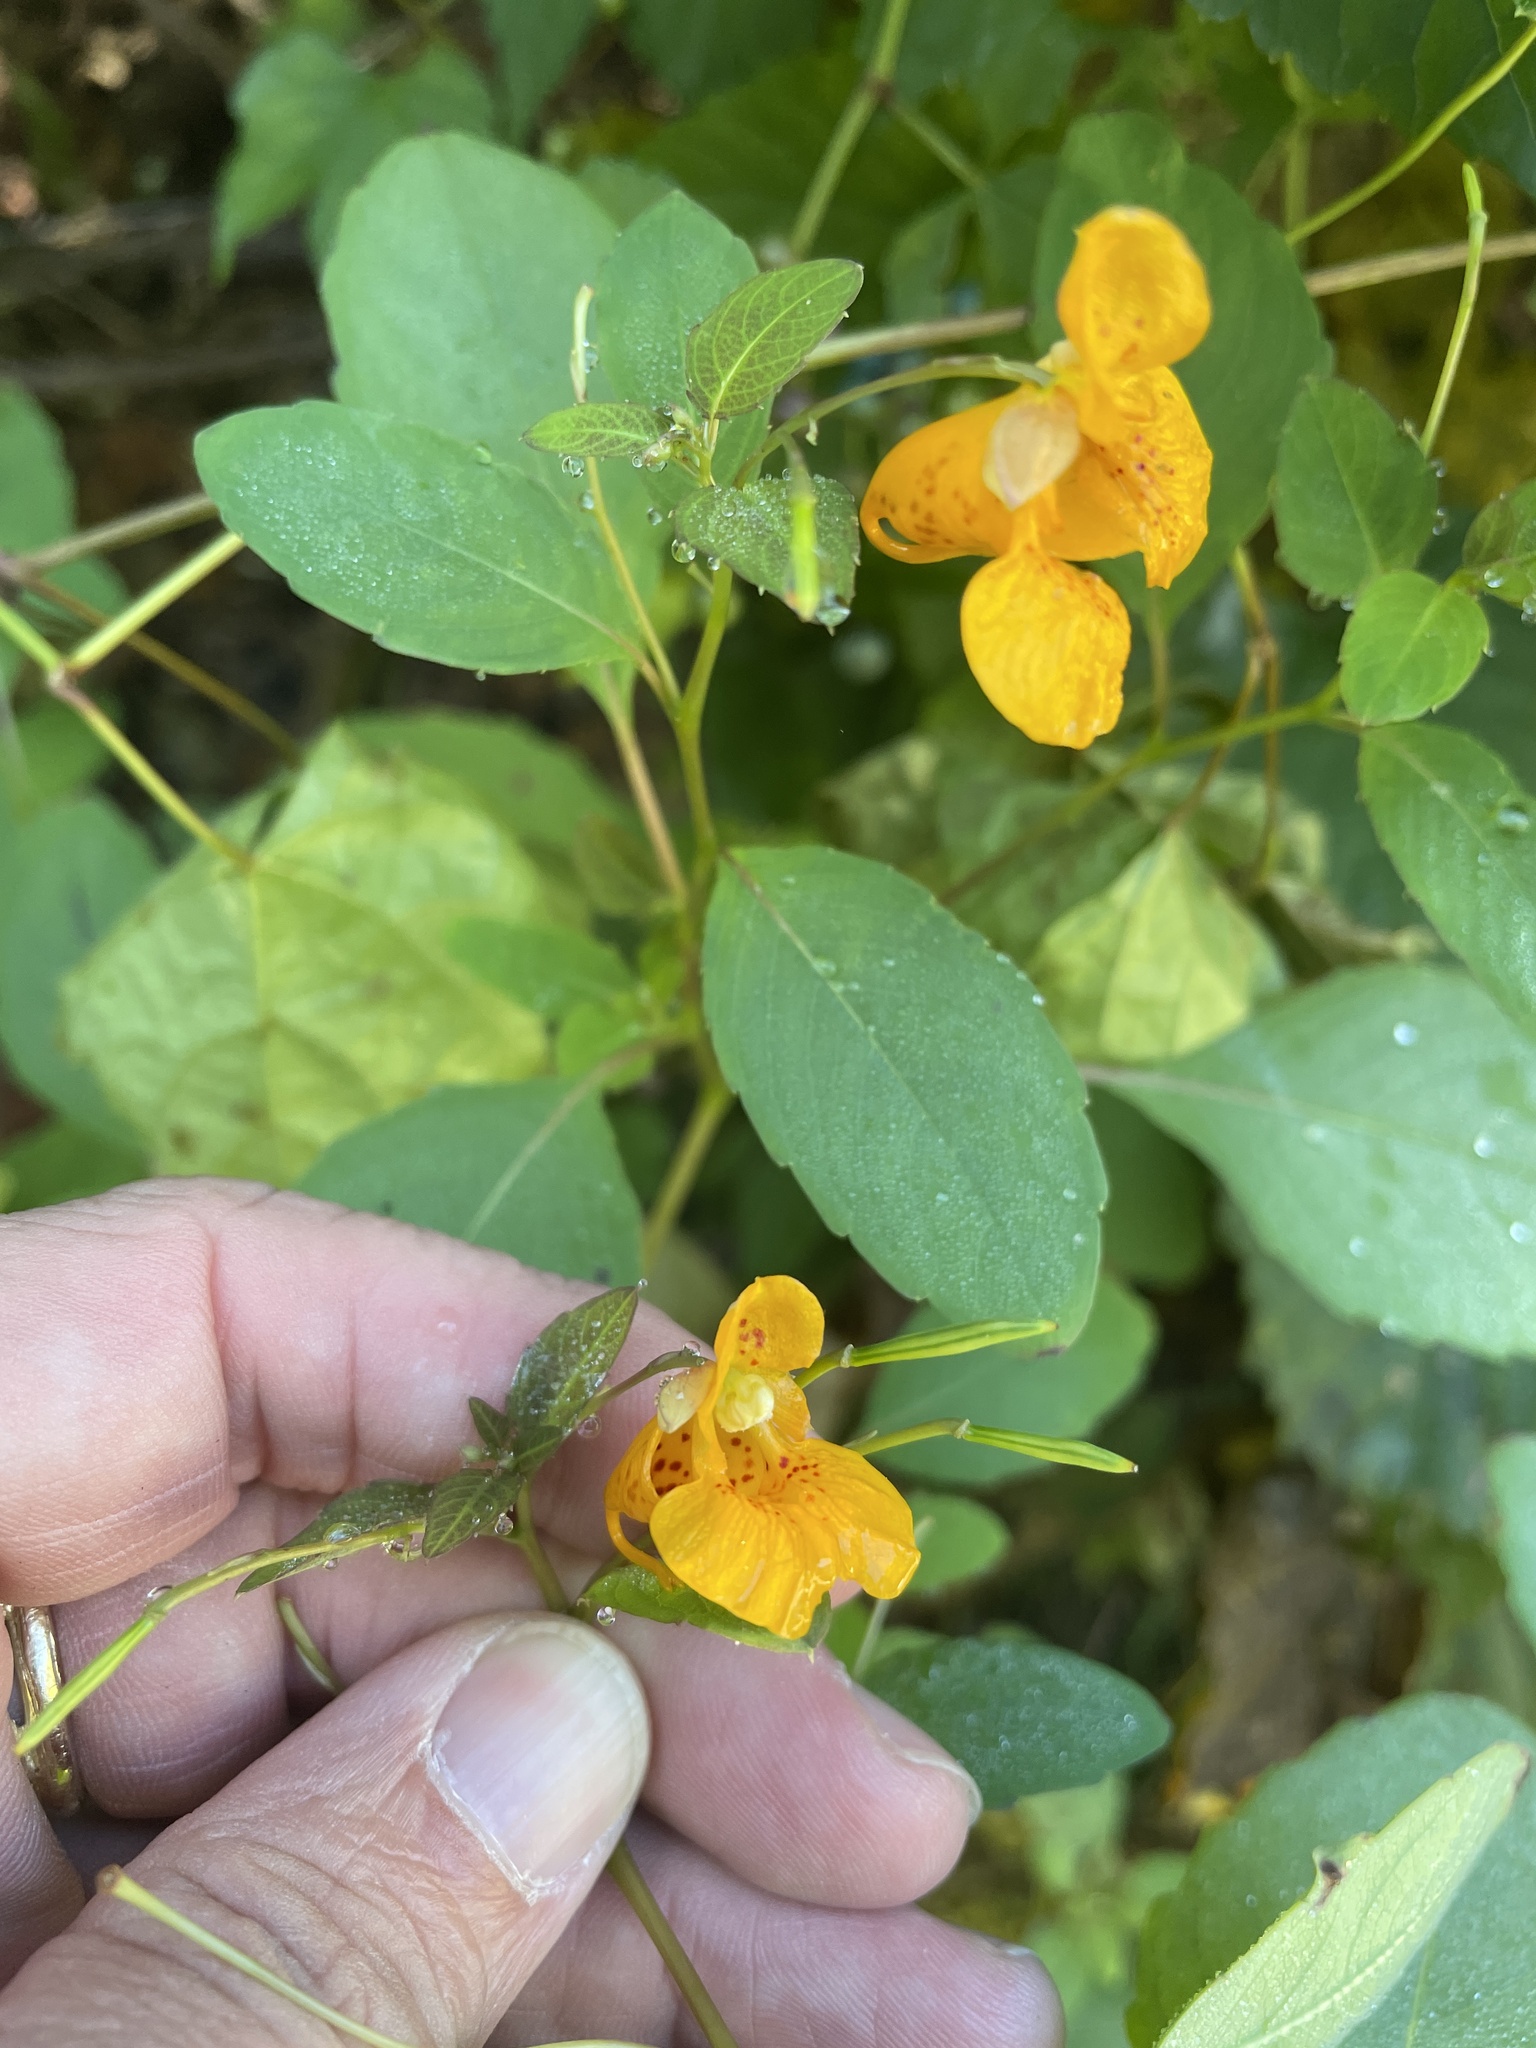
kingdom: Plantae
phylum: Tracheophyta
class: Magnoliopsida
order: Ericales
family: Balsaminaceae
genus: Impatiens
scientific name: Impatiens capensis
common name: Orange balsam
